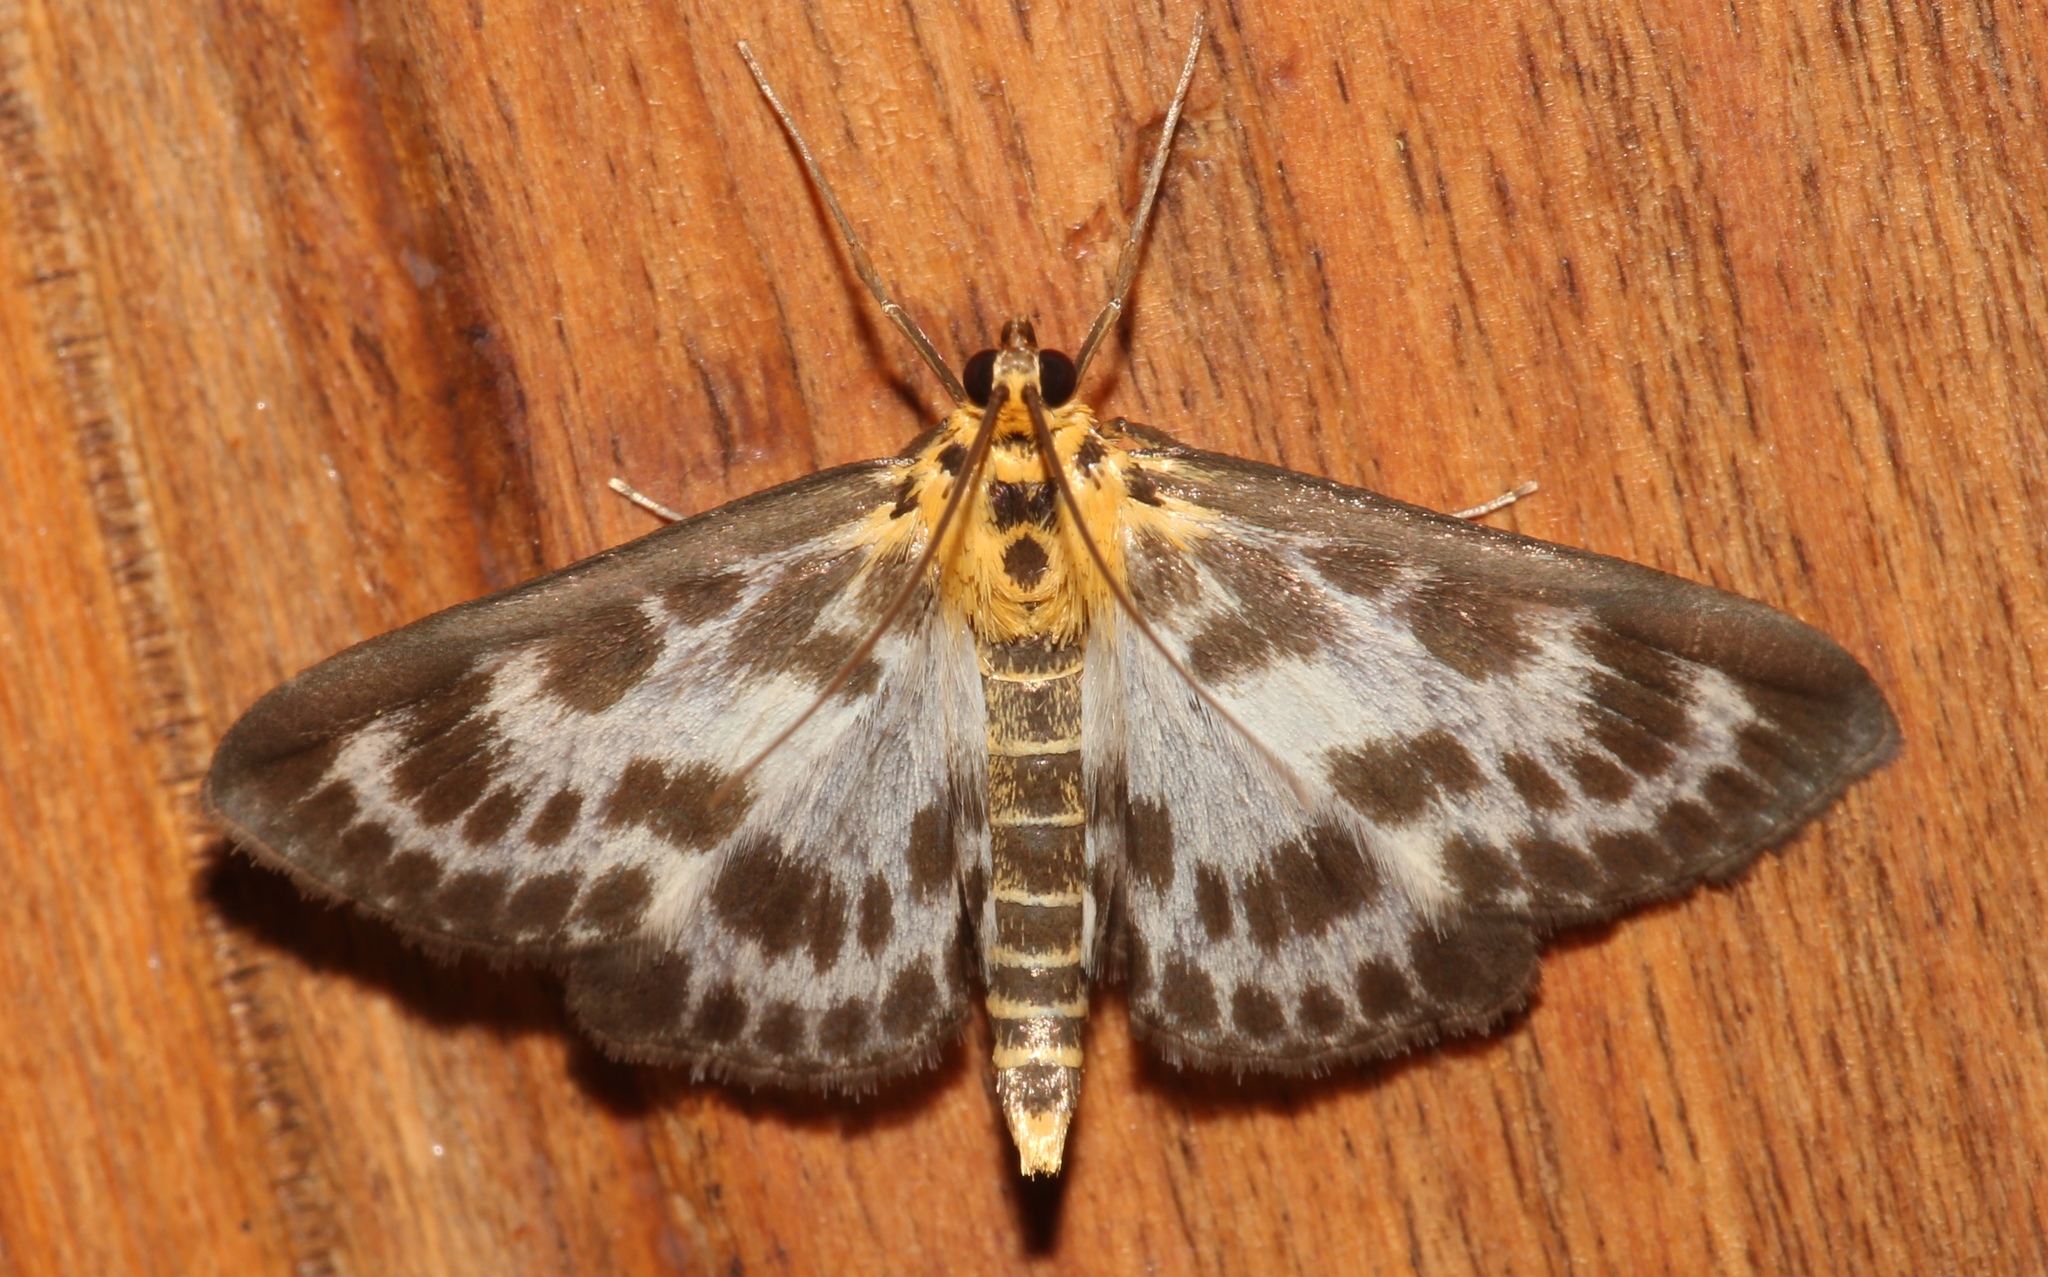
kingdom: Animalia
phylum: Arthropoda
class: Insecta
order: Lepidoptera
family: Crambidae
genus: Anania
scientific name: Anania hortulata
